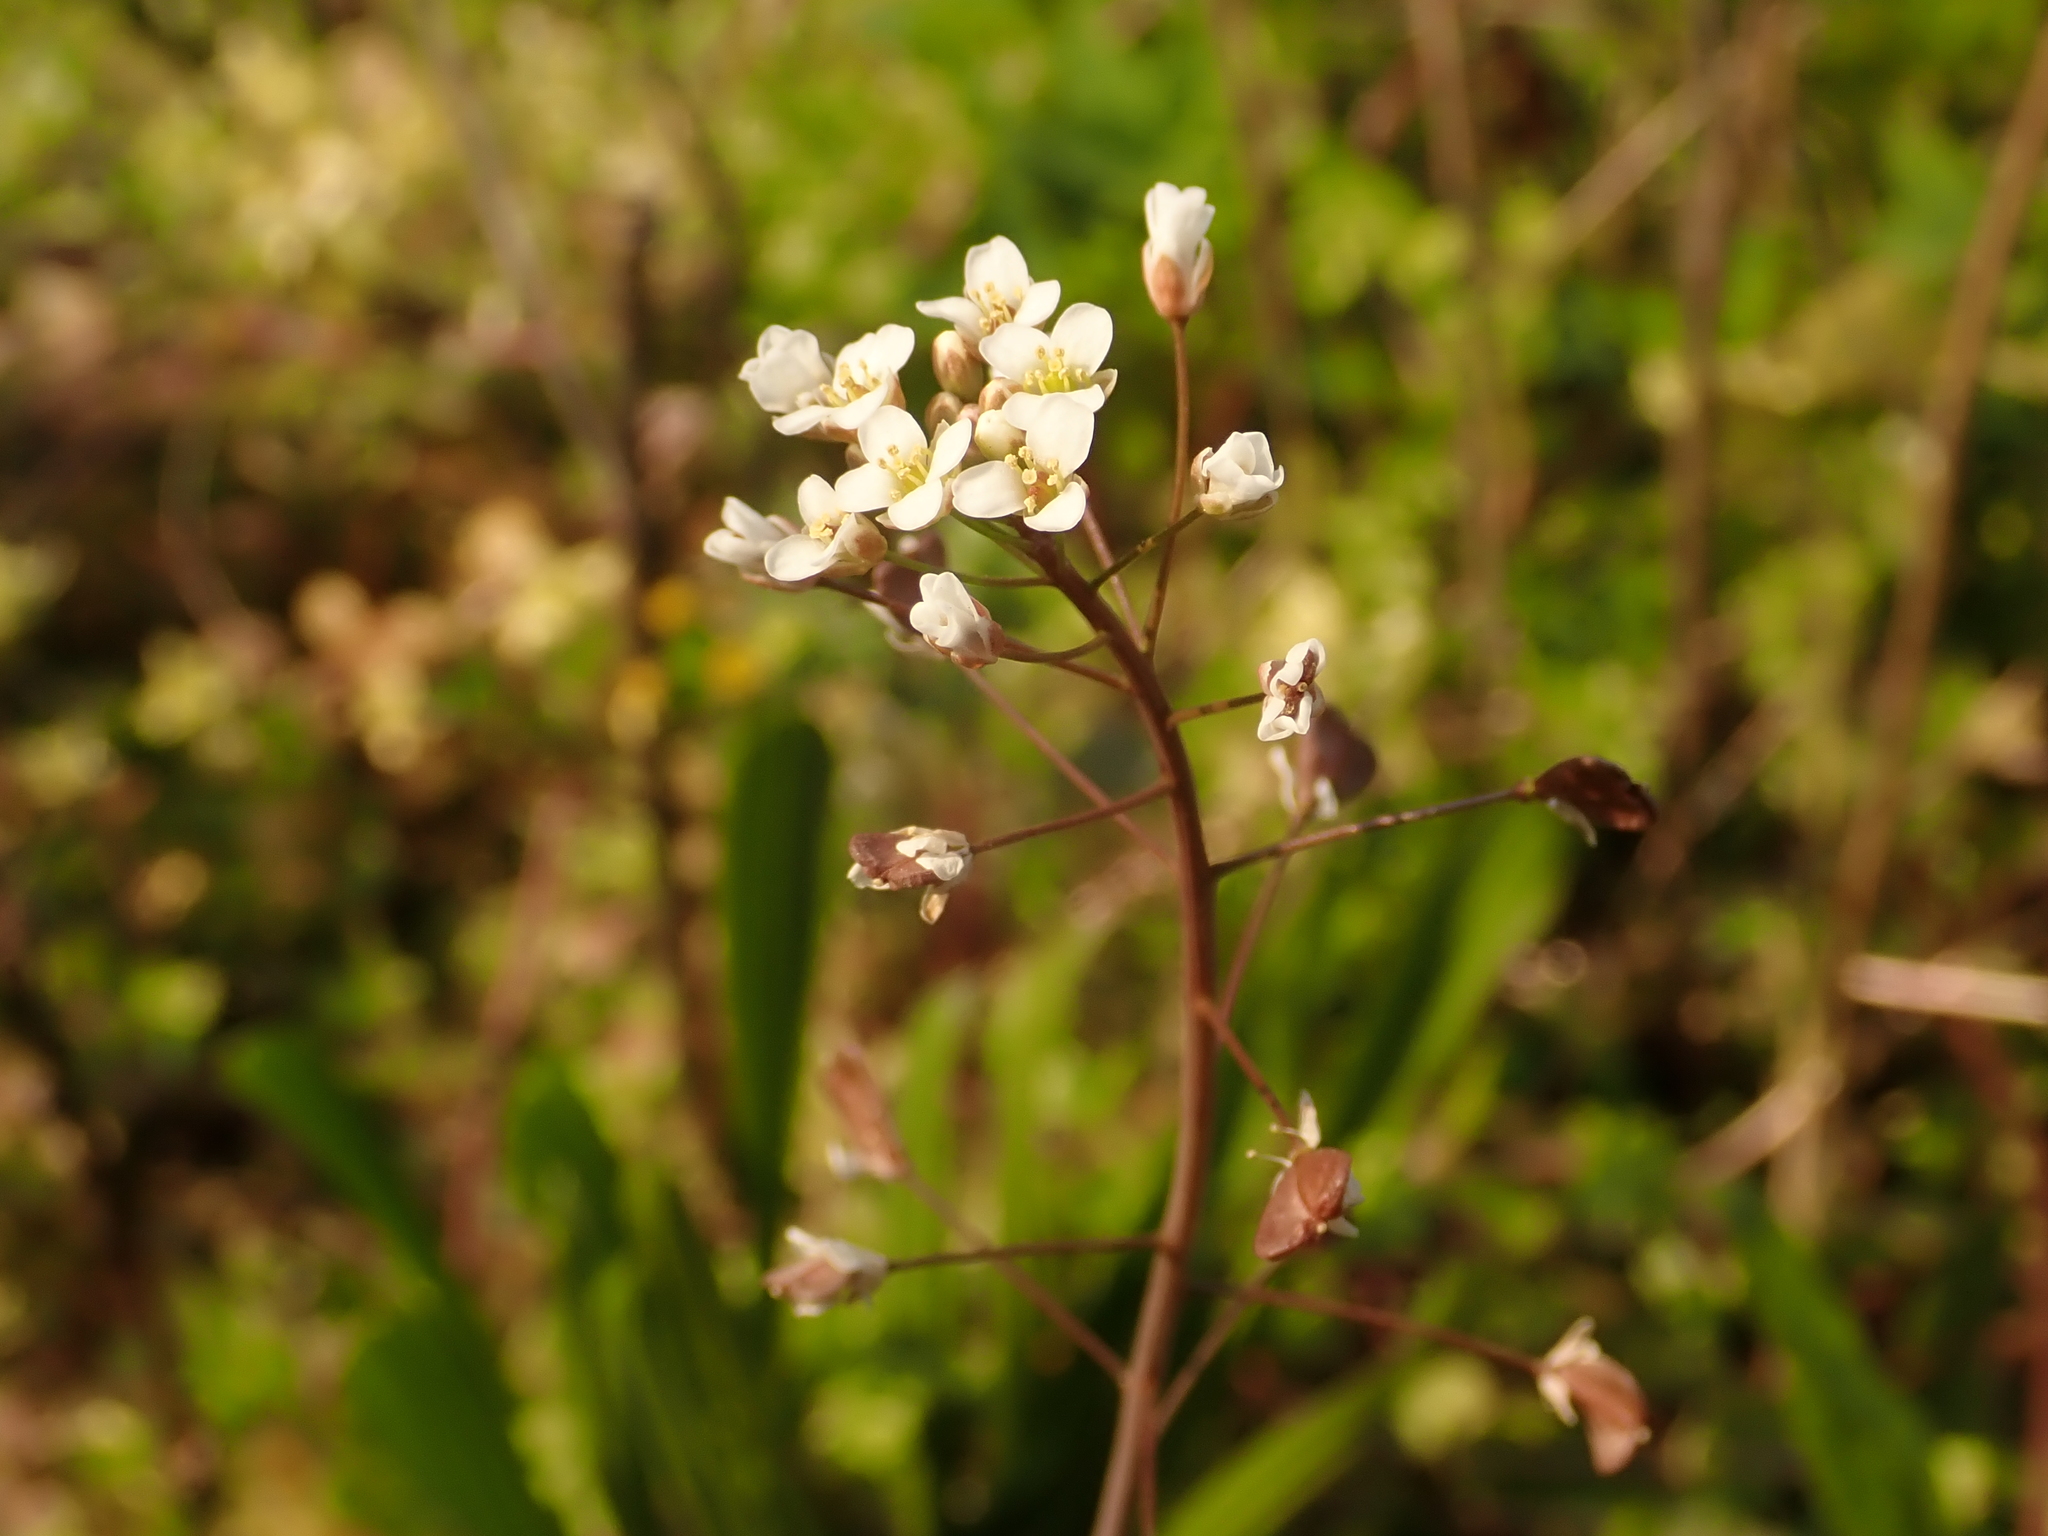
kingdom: Plantae
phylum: Tracheophyta
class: Magnoliopsida
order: Brassicales
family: Brassicaceae
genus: Capsella
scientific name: Capsella bursa-pastoris
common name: Shepherd's purse
